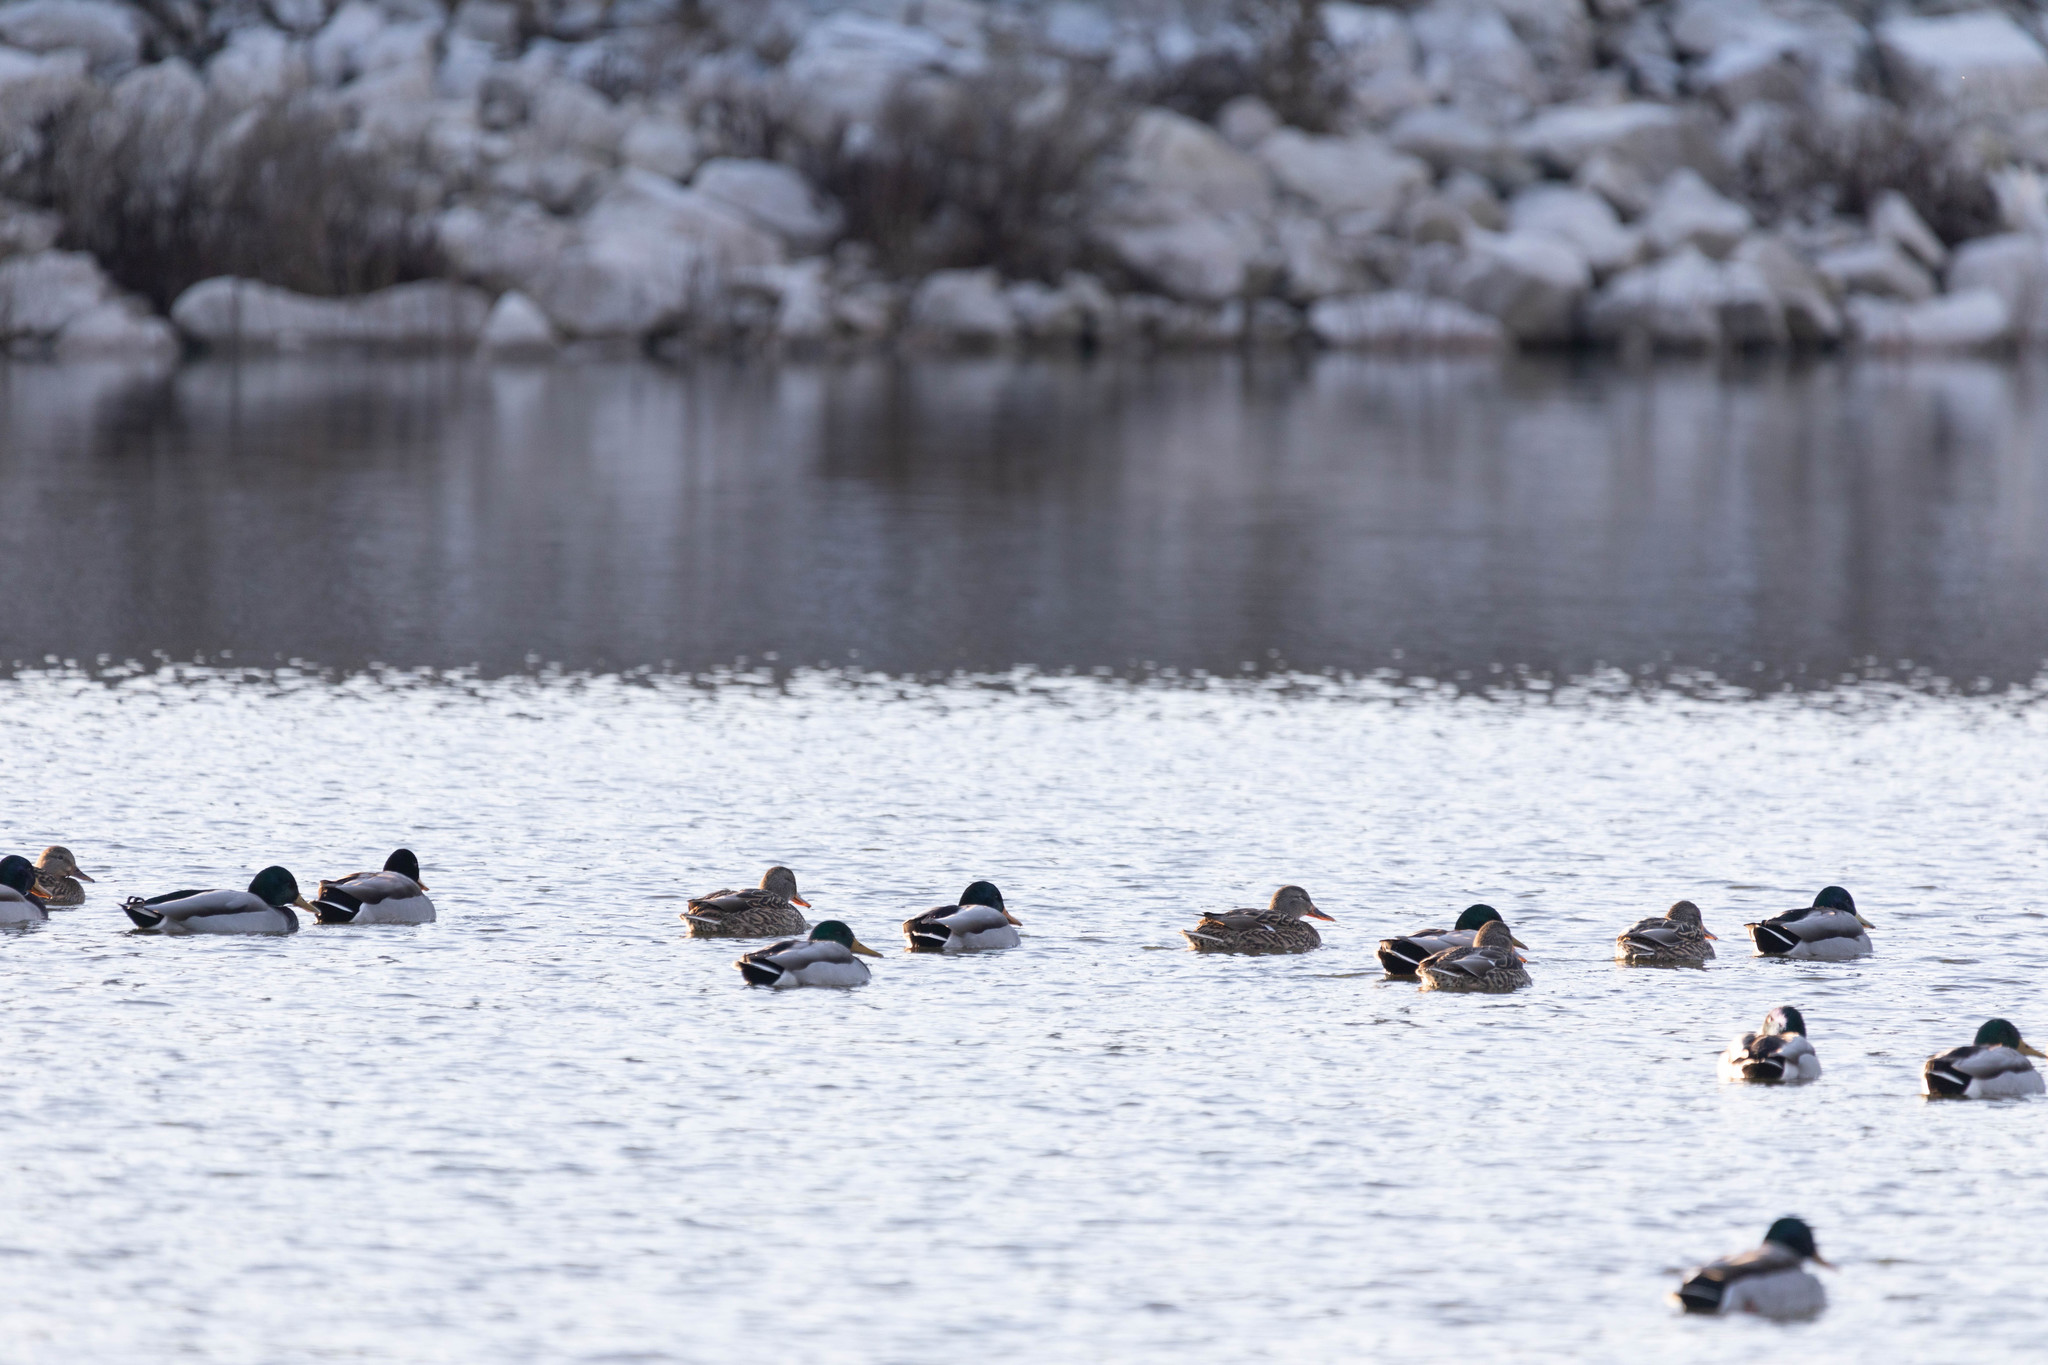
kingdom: Animalia
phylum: Chordata
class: Aves
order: Anseriformes
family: Anatidae
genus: Anas
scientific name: Anas platyrhynchos
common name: Mallard
